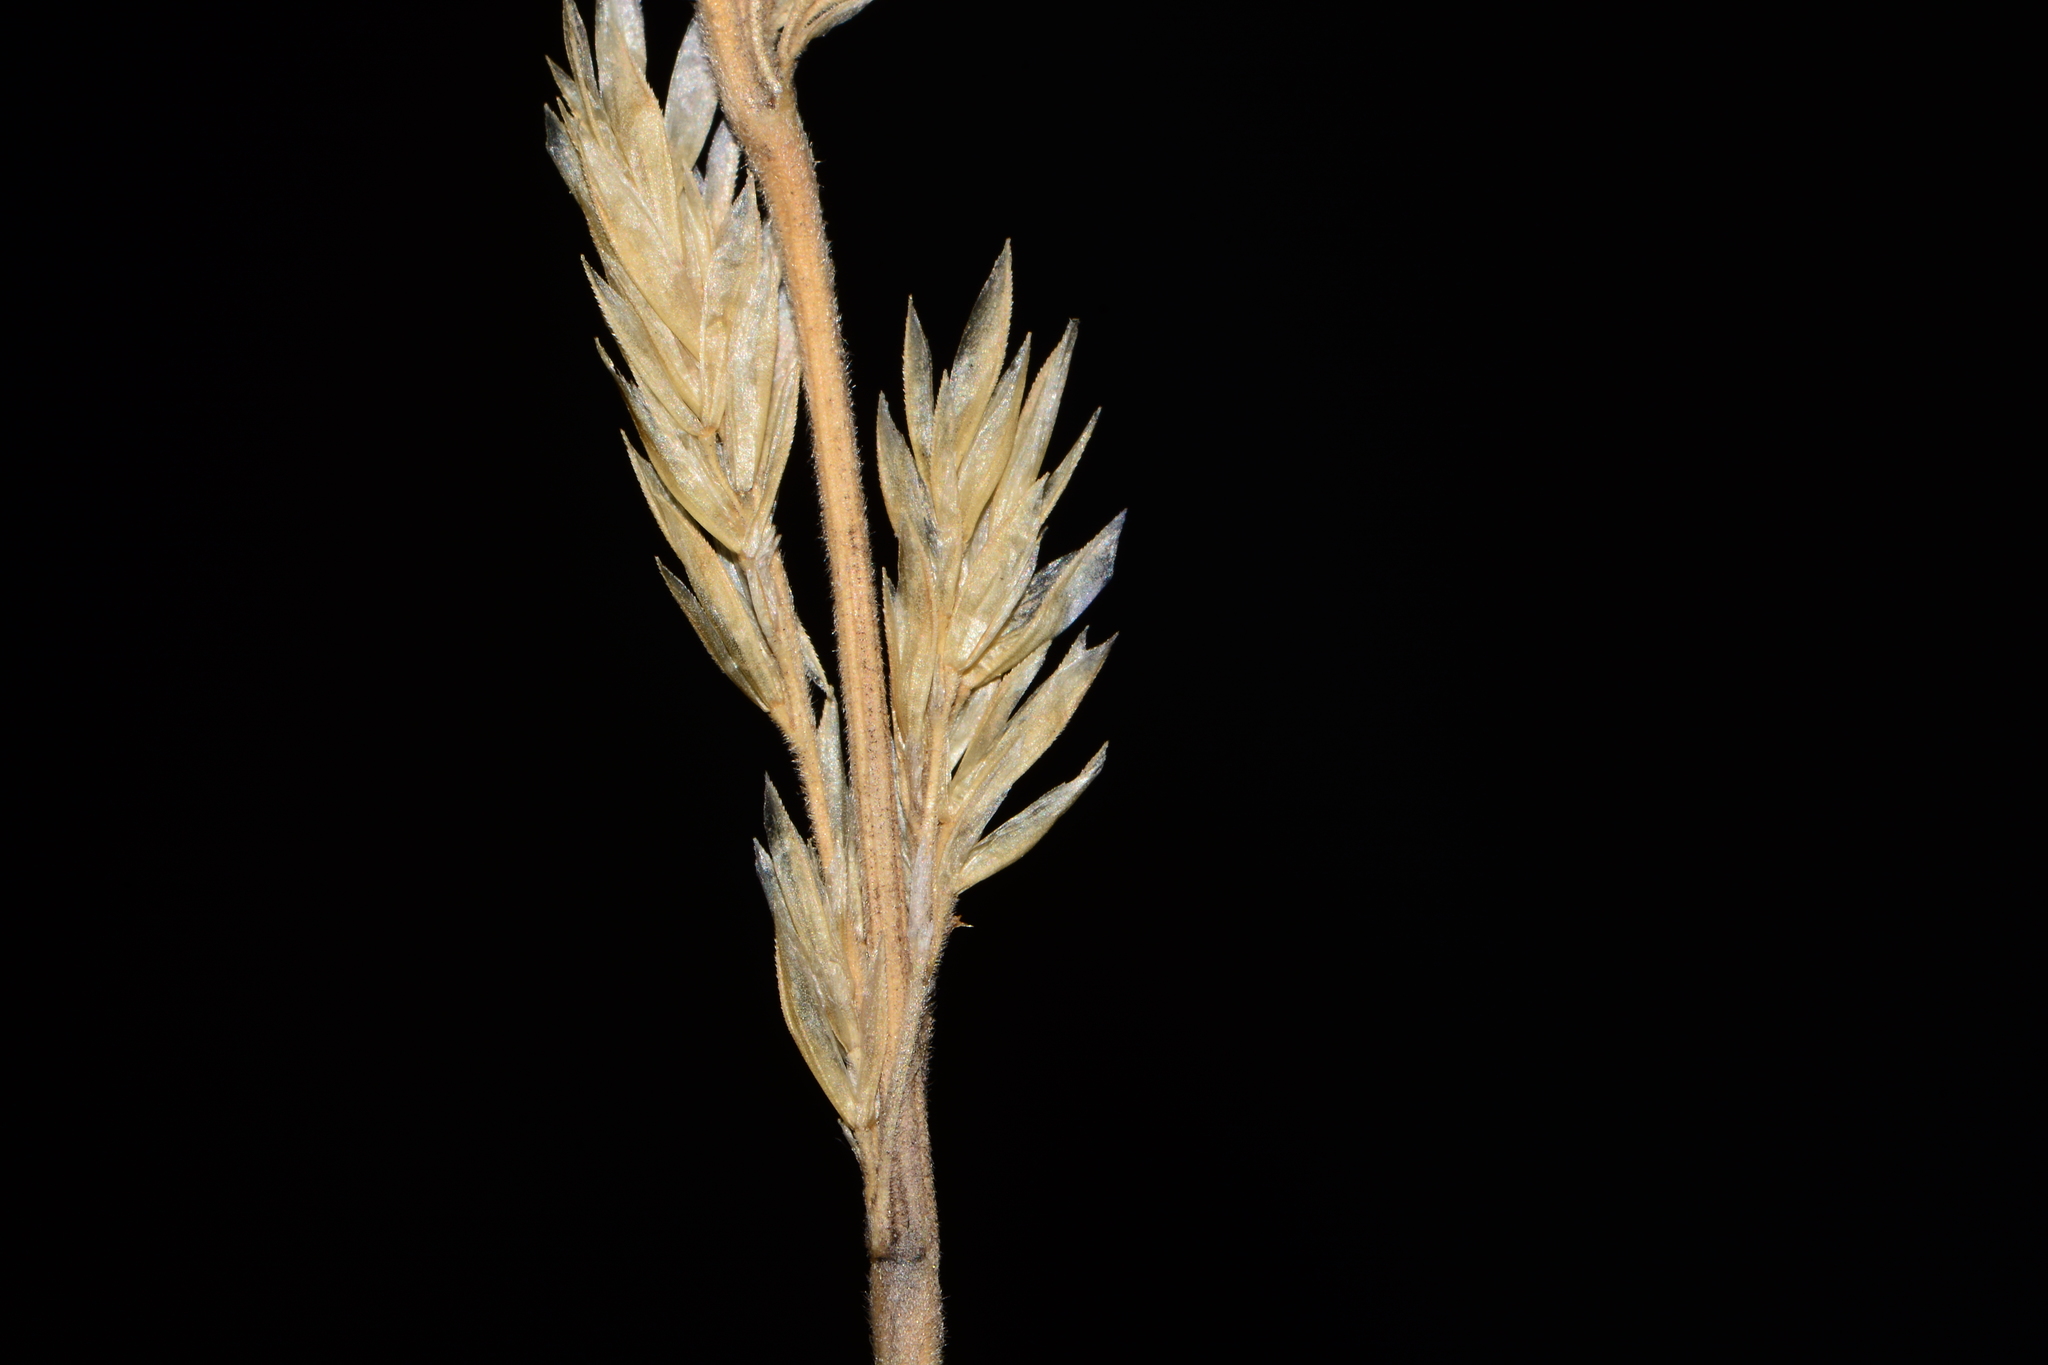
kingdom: Plantae
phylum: Tracheophyta
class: Liliopsida
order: Poales
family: Poaceae
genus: Koeleria
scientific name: Koeleria macrantha
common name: Crested hair-grass
